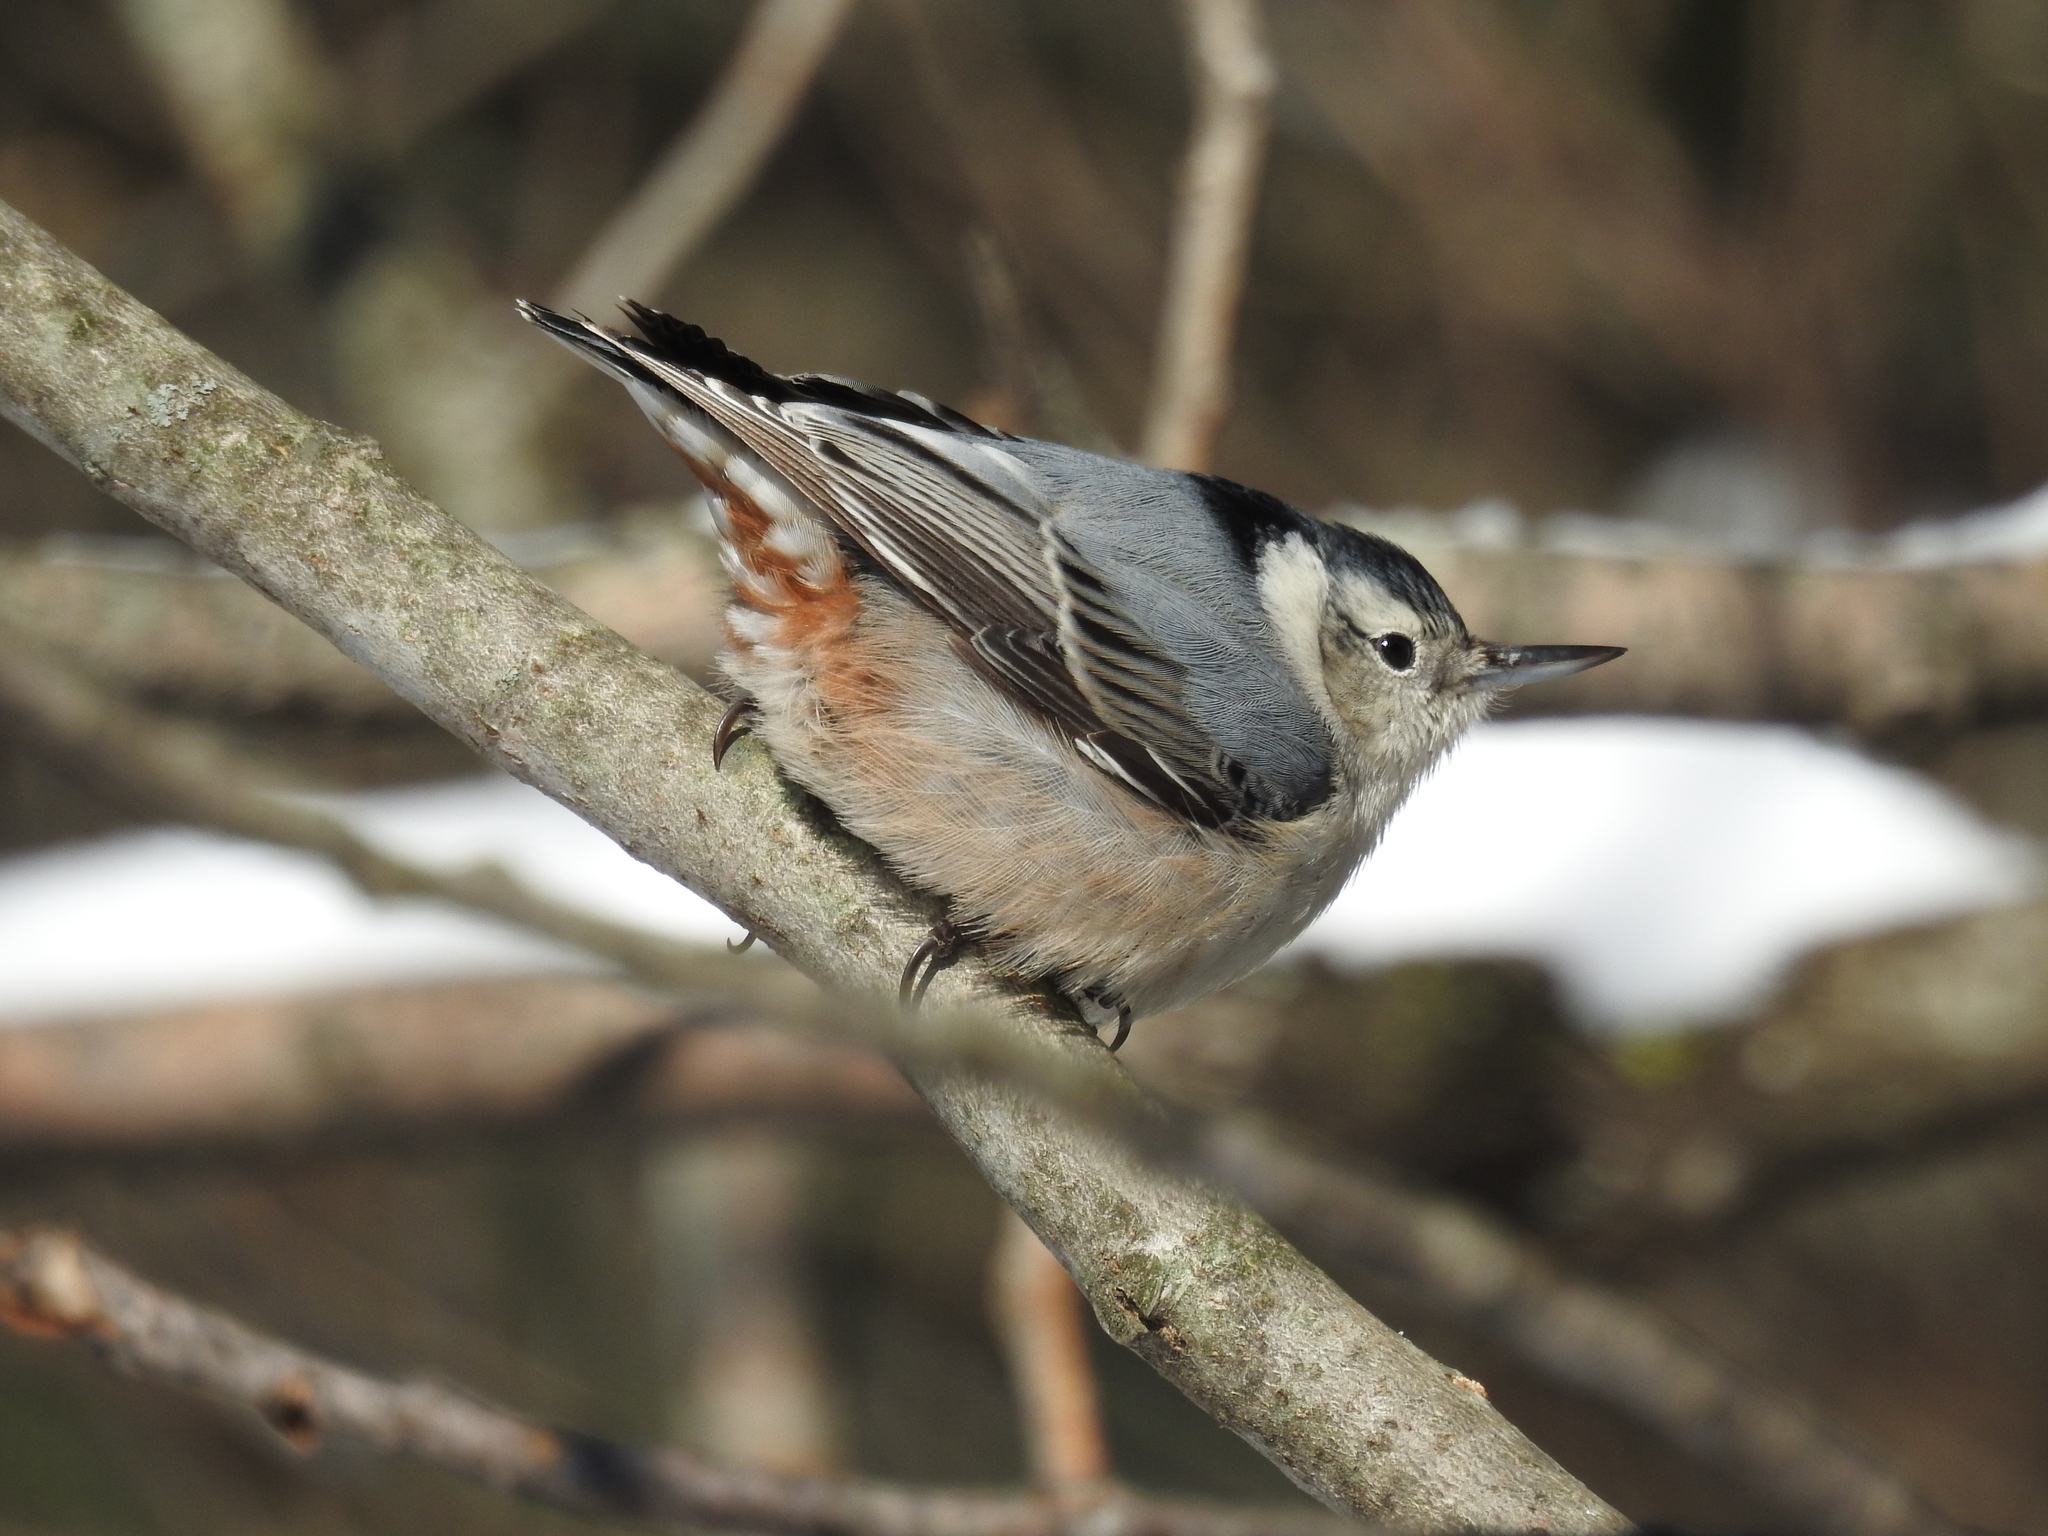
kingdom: Animalia
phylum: Chordata
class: Aves
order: Passeriformes
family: Sittidae
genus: Sitta
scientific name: Sitta carolinensis
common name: White-breasted nuthatch
